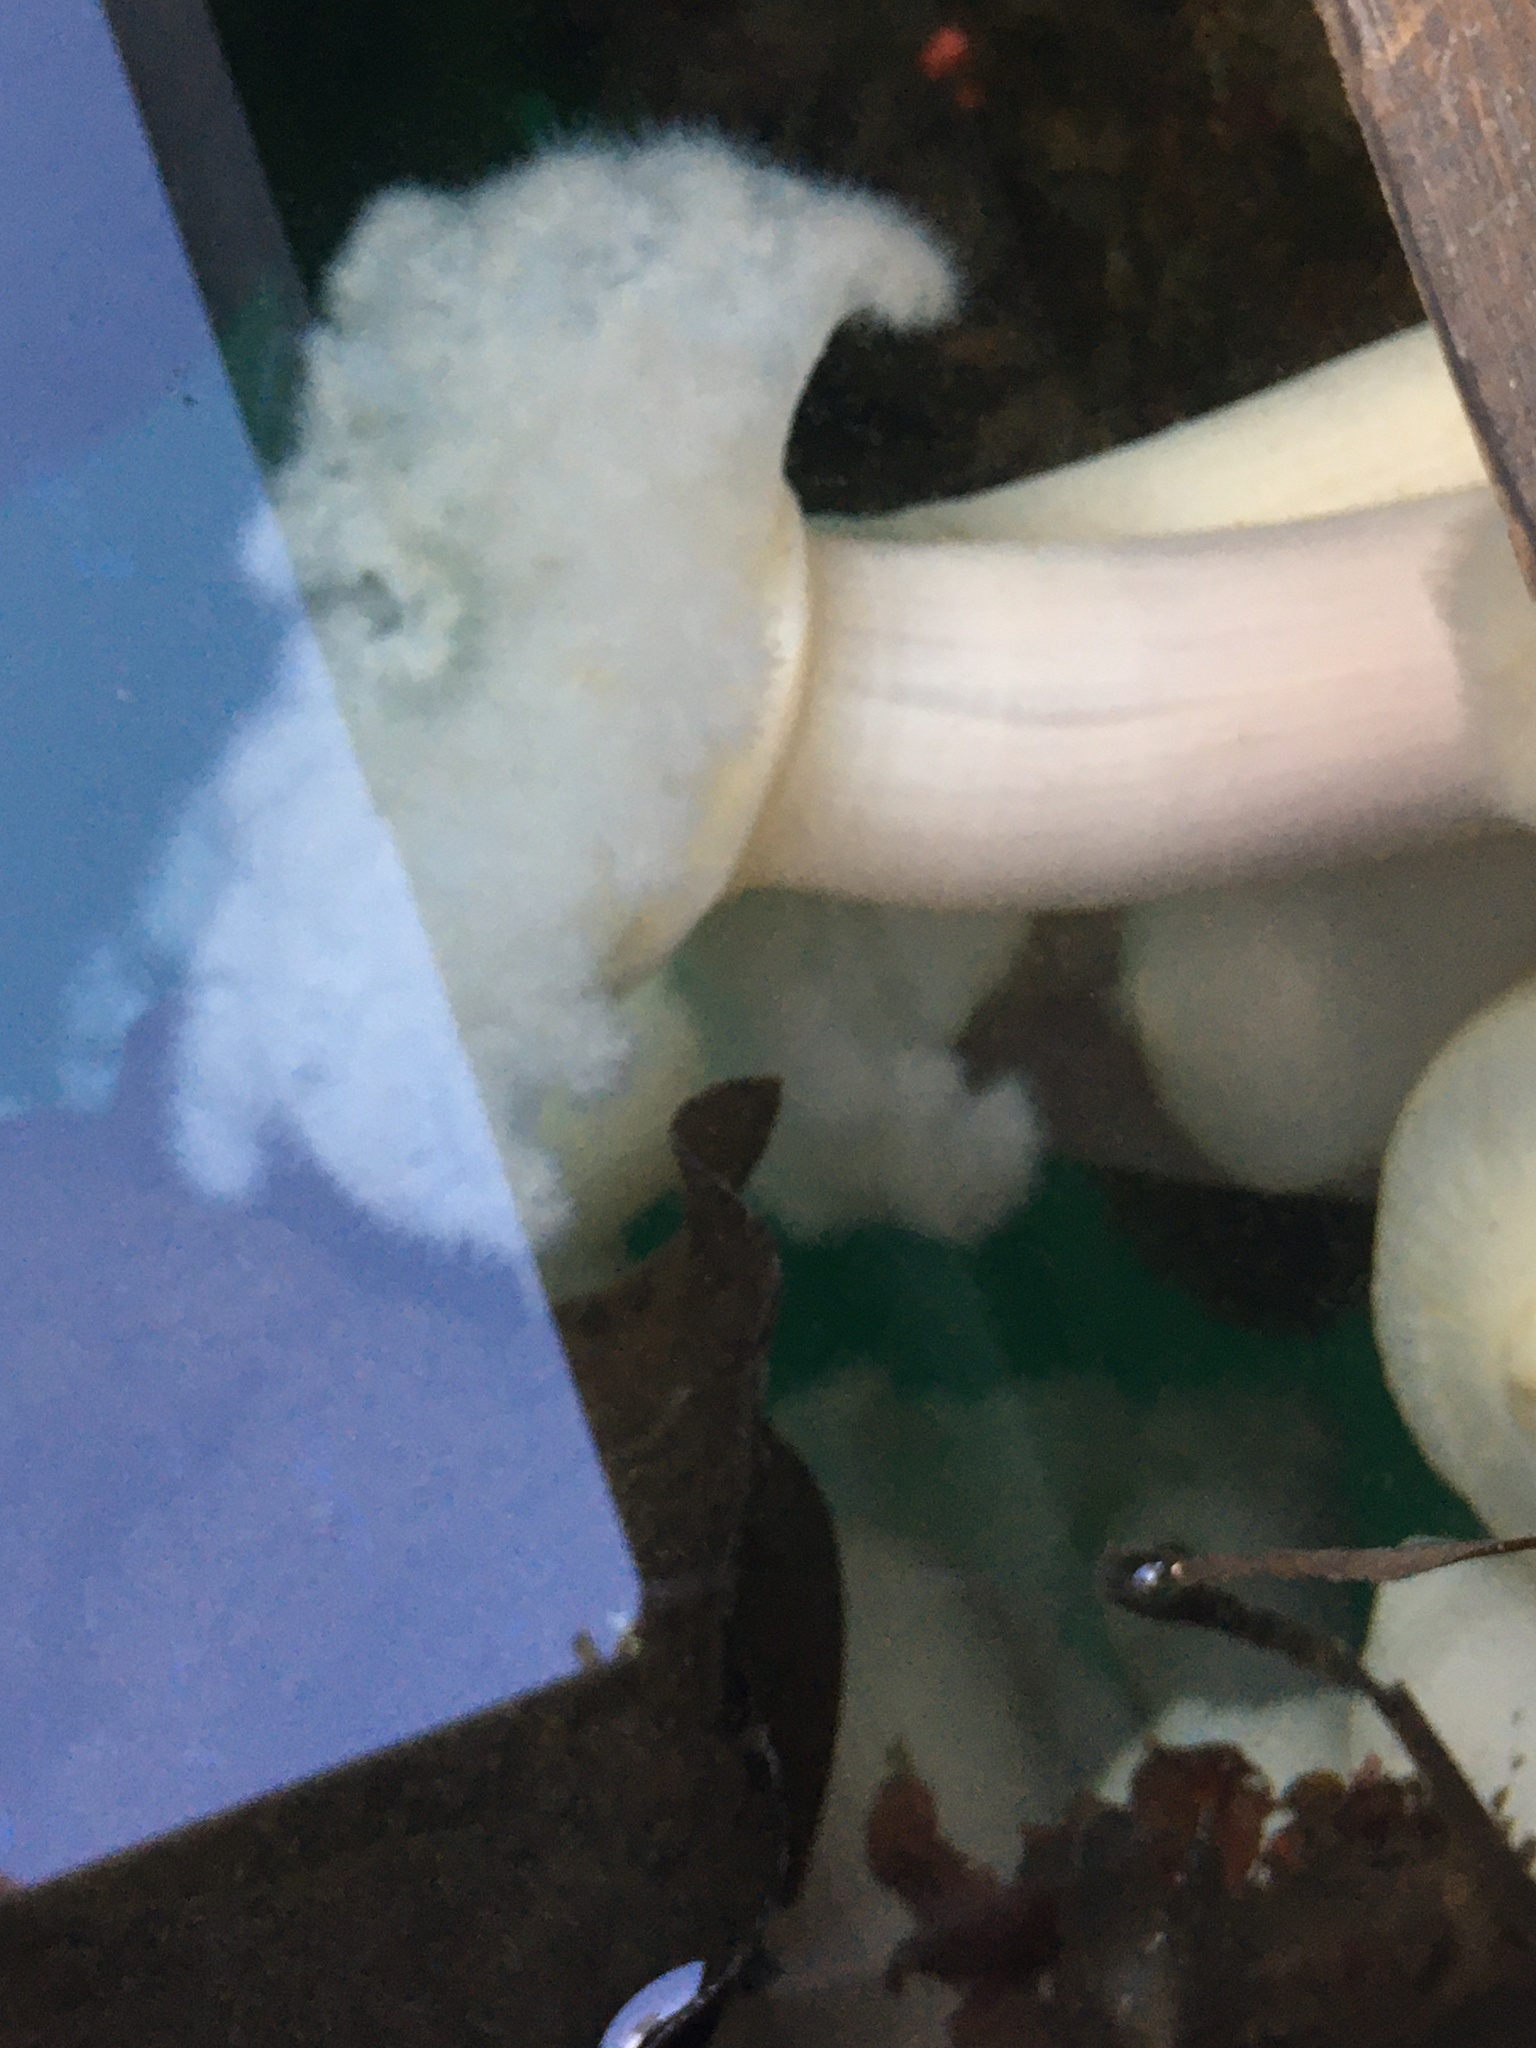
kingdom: Animalia
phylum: Cnidaria
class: Anthozoa
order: Actiniaria
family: Metridiidae
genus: Metridium
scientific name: Metridium farcimen
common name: Gigantic anemone
